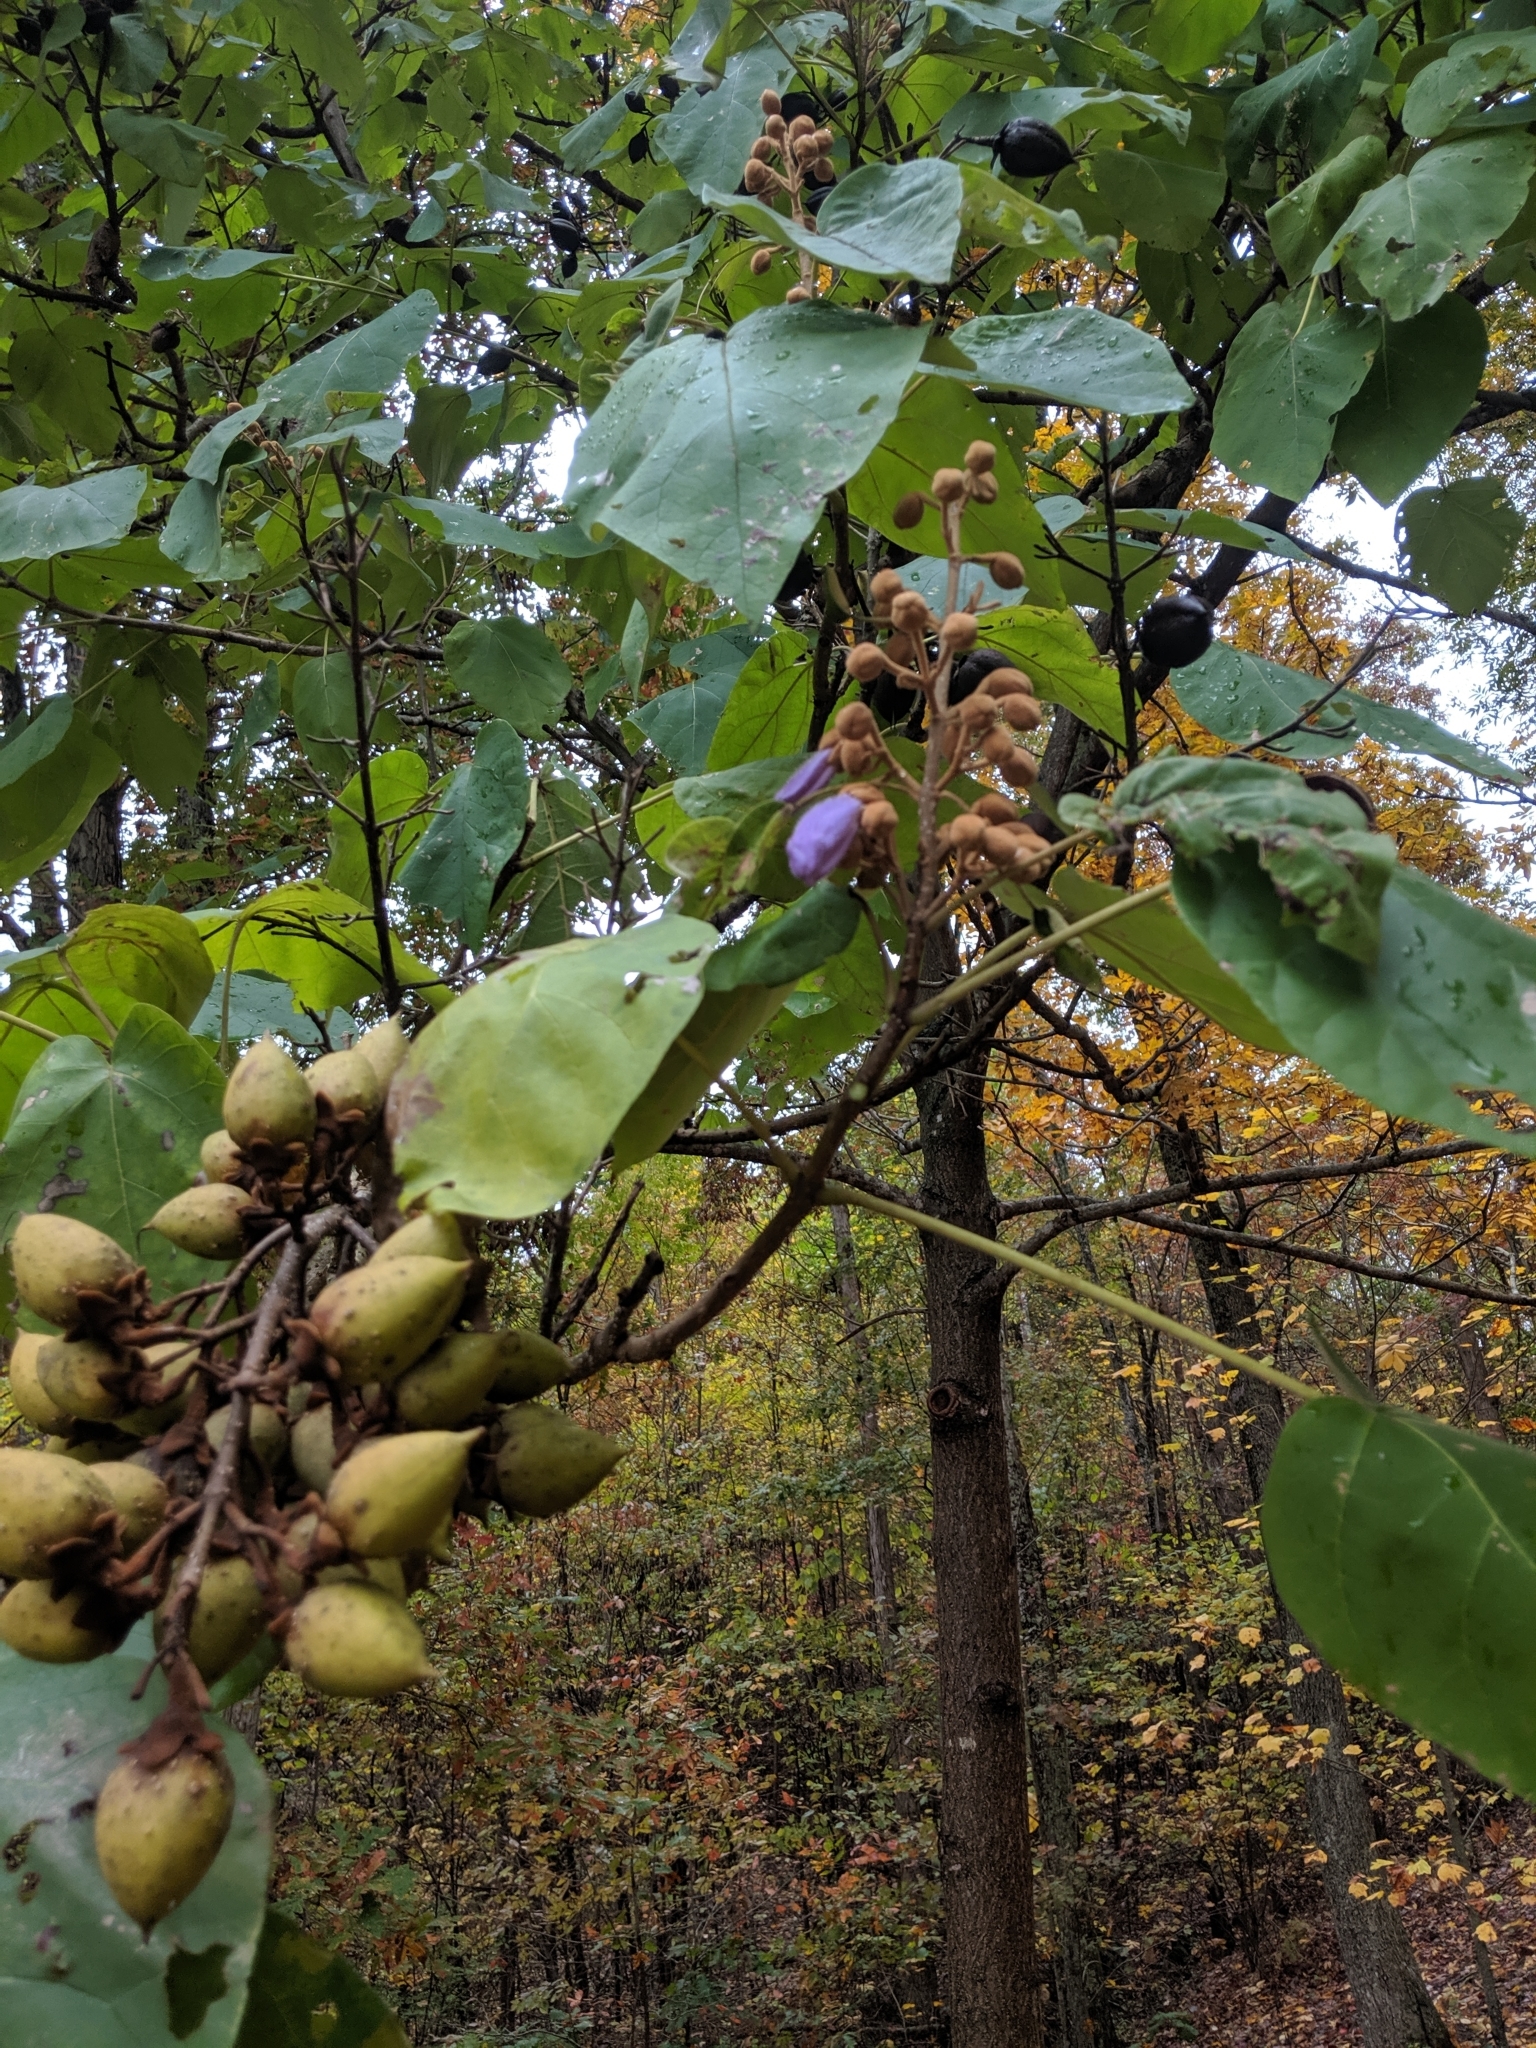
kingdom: Plantae
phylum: Tracheophyta
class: Magnoliopsida
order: Lamiales
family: Paulowniaceae
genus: Paulownia
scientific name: Paulownia tomentosa
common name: Foxglove-tree
